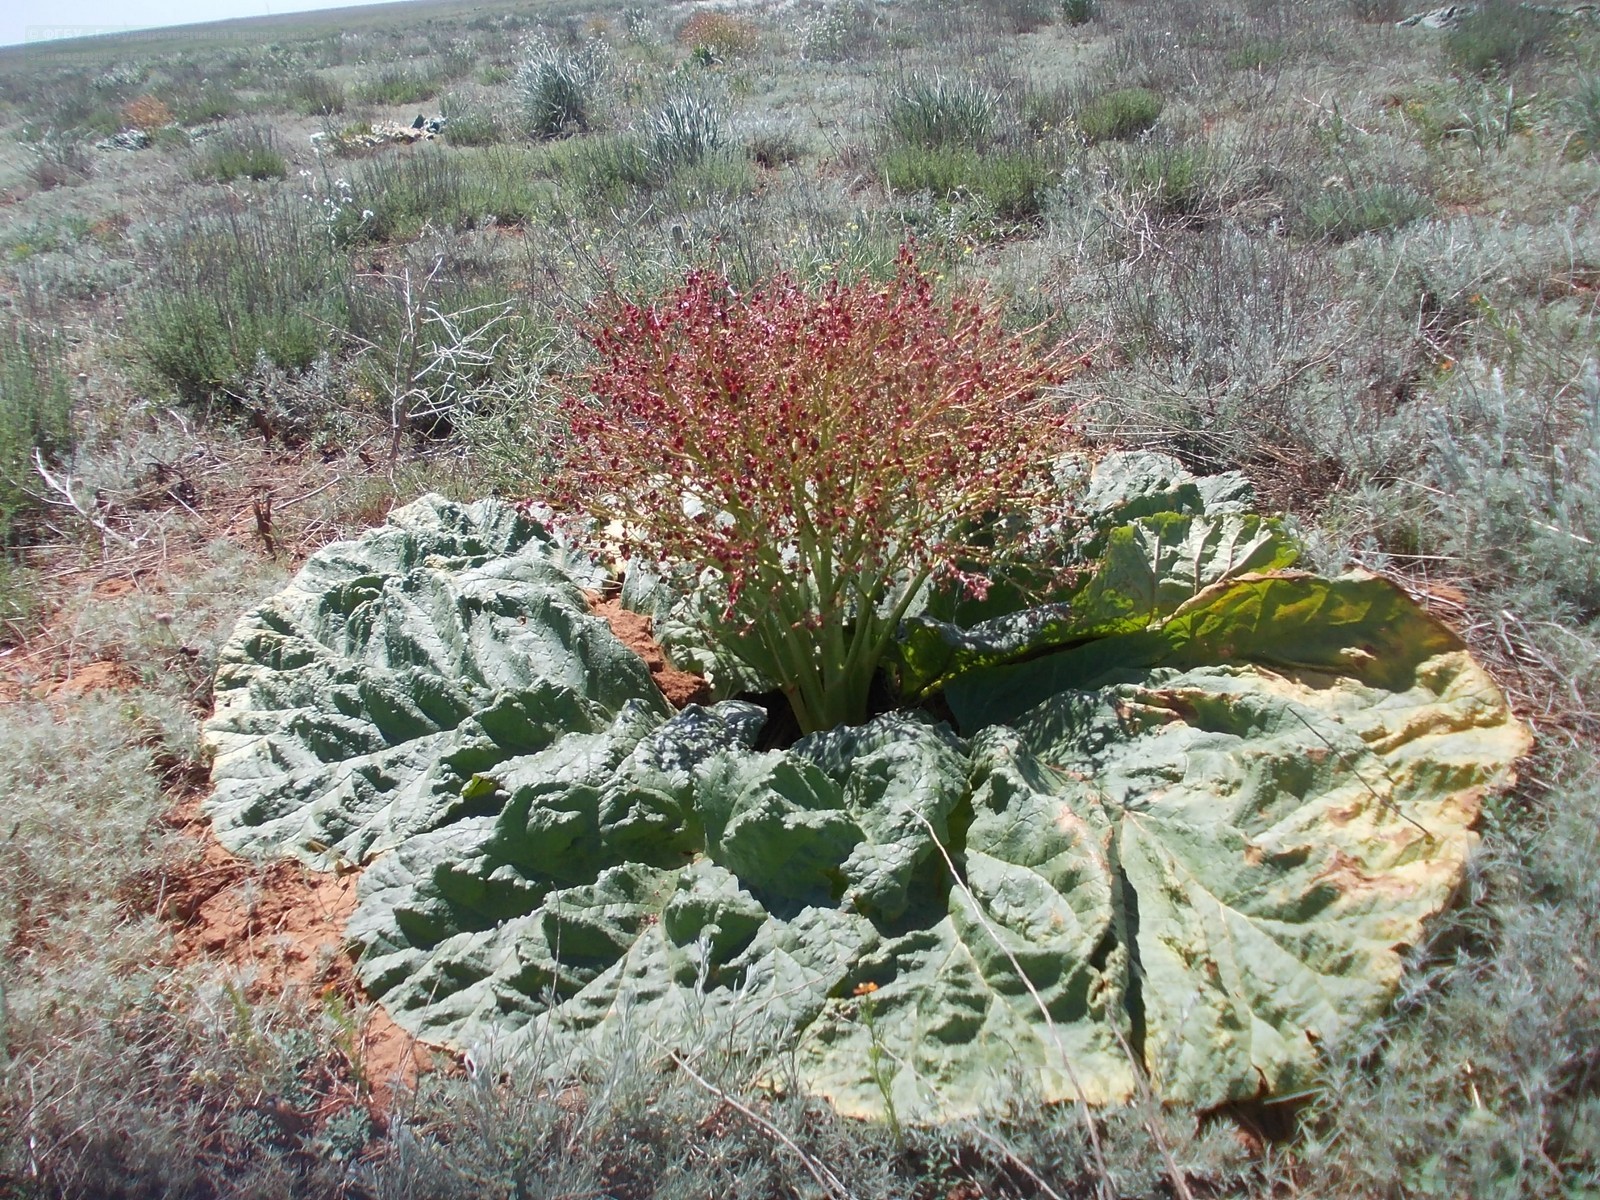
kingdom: Plantae
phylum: Tracheophyta
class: Magnoliopsida
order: Caryophyllales
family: Polygonaceae
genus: Rheum
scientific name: Rheum tataricum
